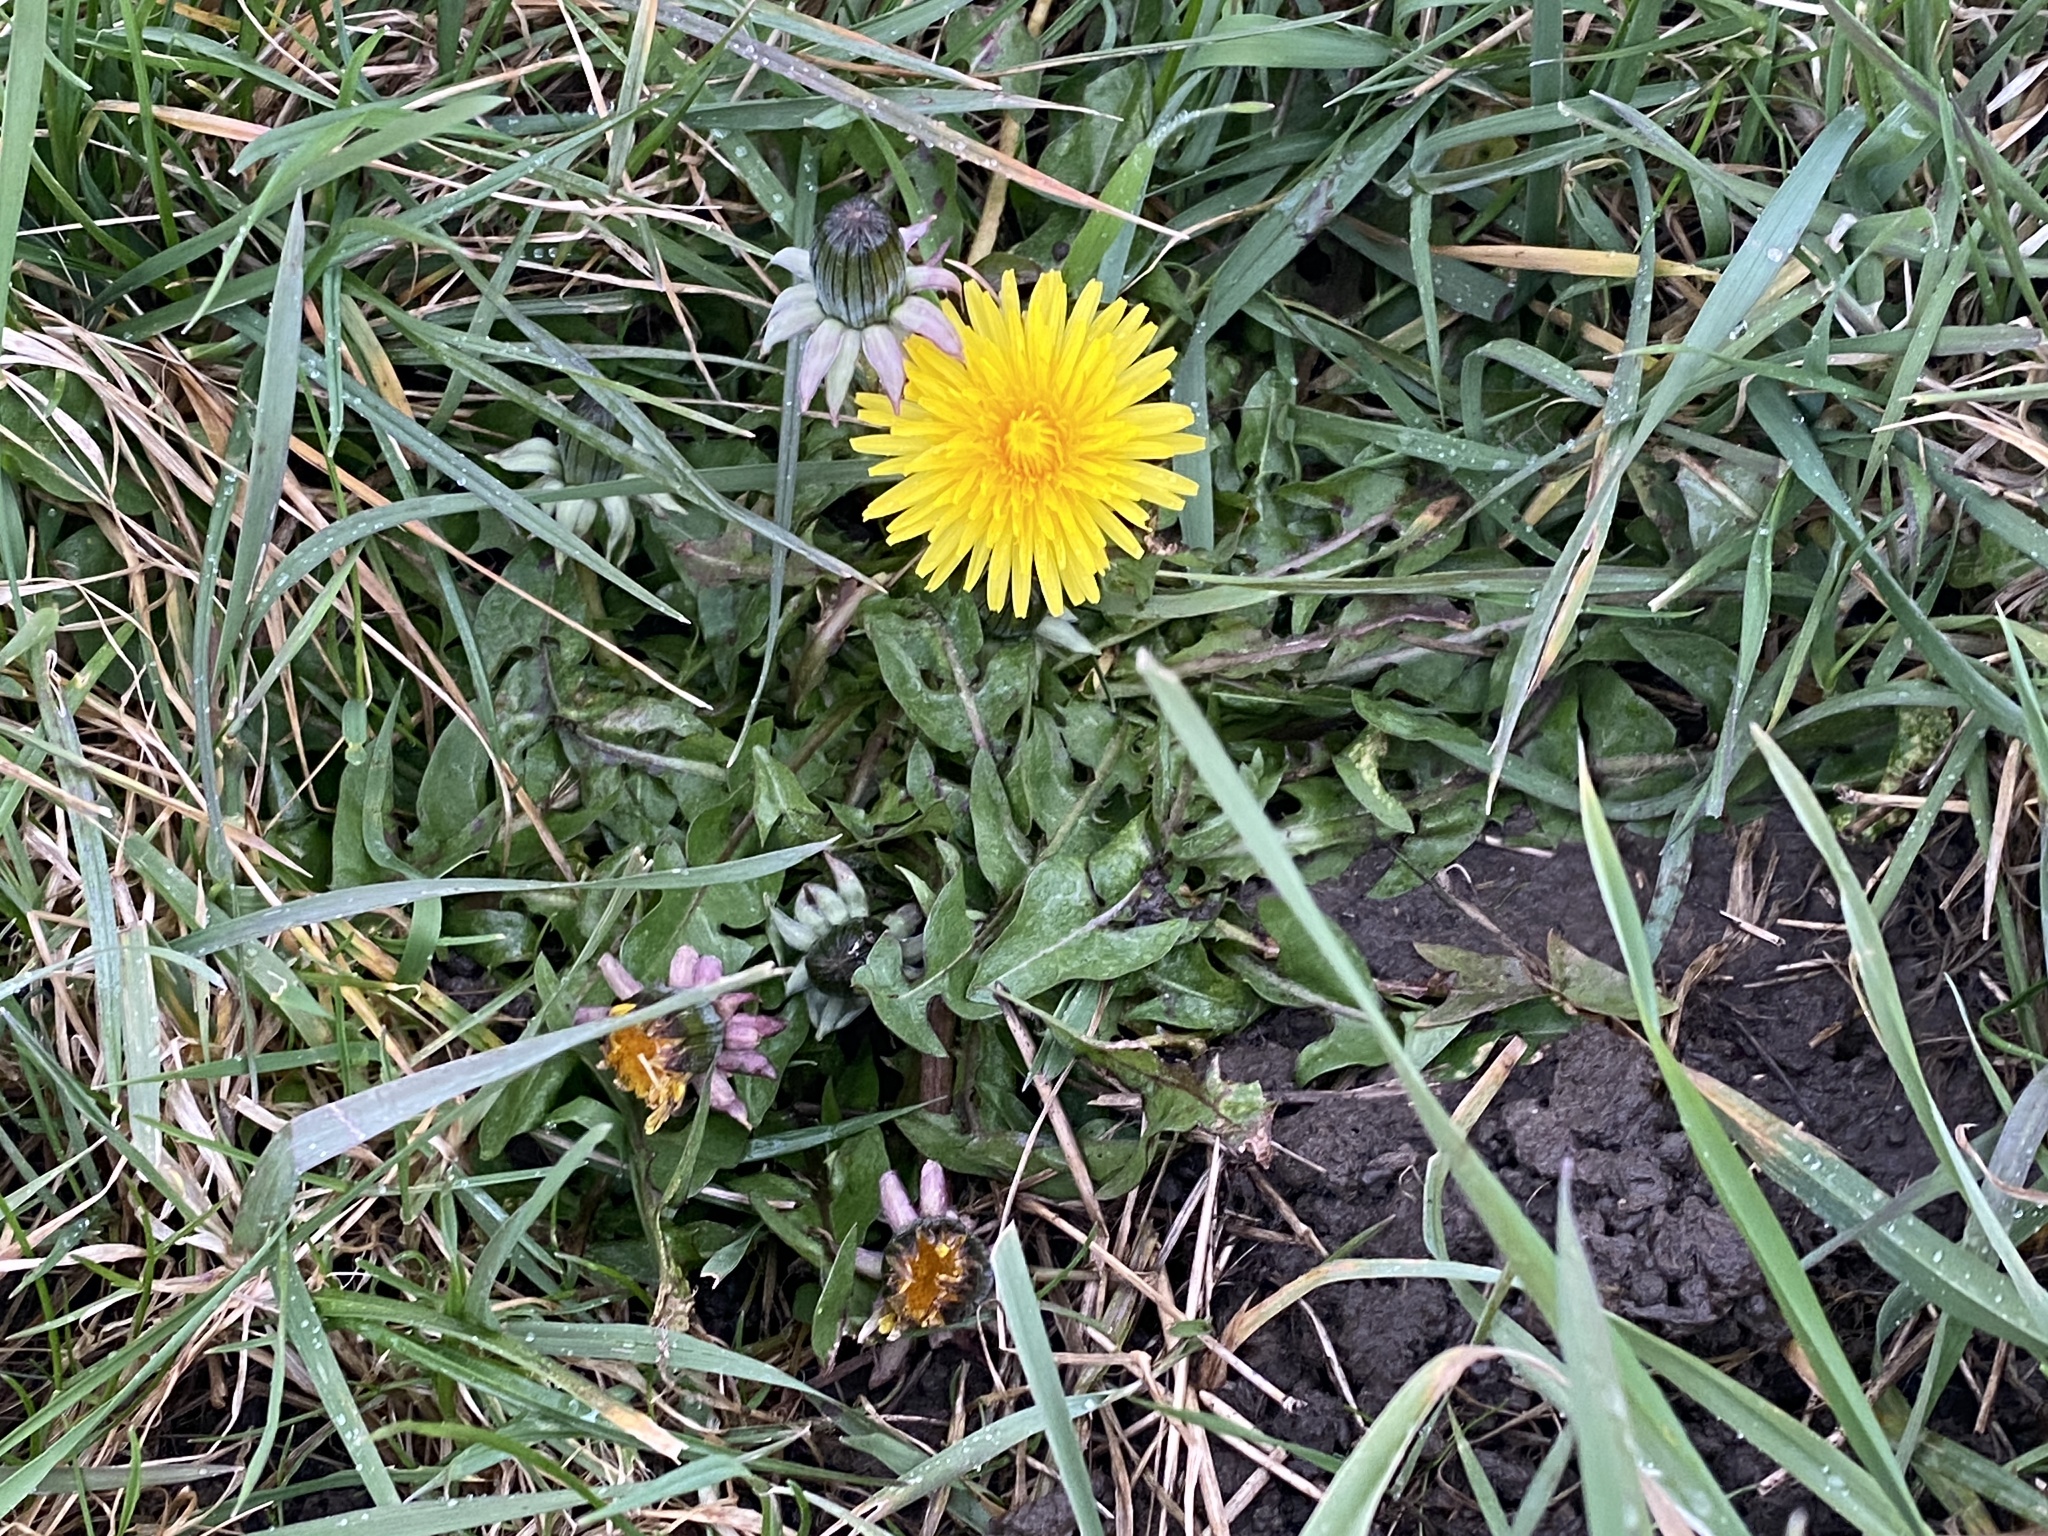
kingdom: Plantae
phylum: Tracheophyta
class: Magnoliopsida
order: Asterales
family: Asteraceae
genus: Taraxacum
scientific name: Taraxacum officinale
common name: Common dandelion
